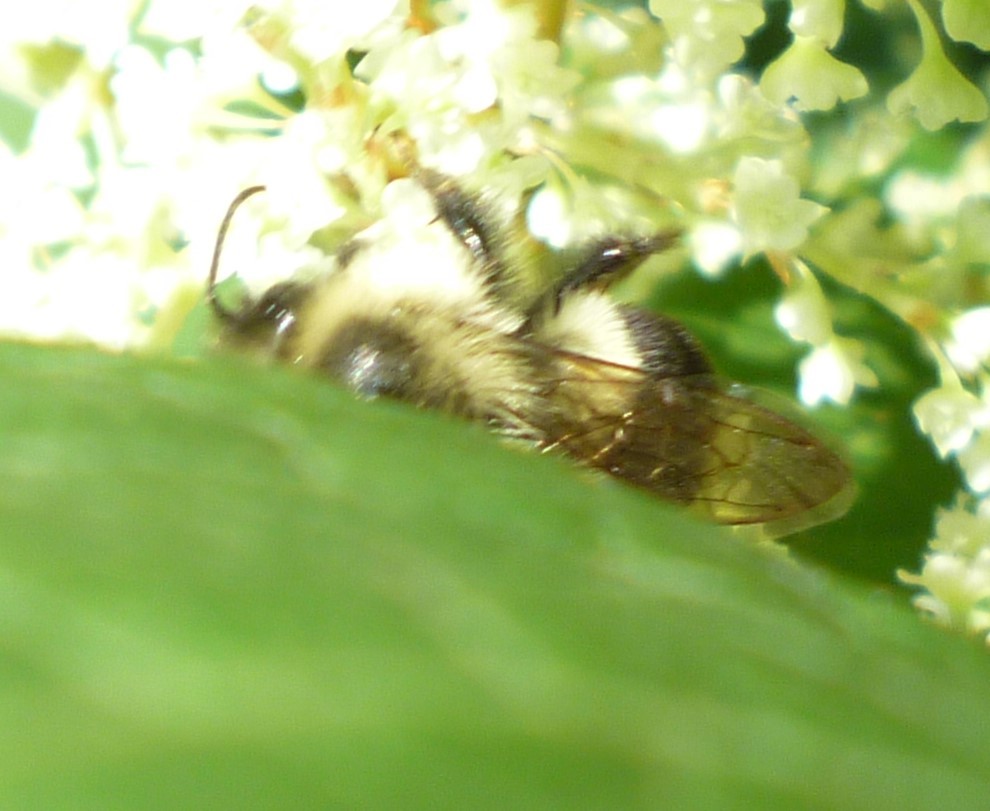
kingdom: Animalia
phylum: Arthropoda
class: Insecta
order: Hymenoptera
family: Apidae
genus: Bombus
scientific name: Bombus impatiens
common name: Common eastern bumble bee
